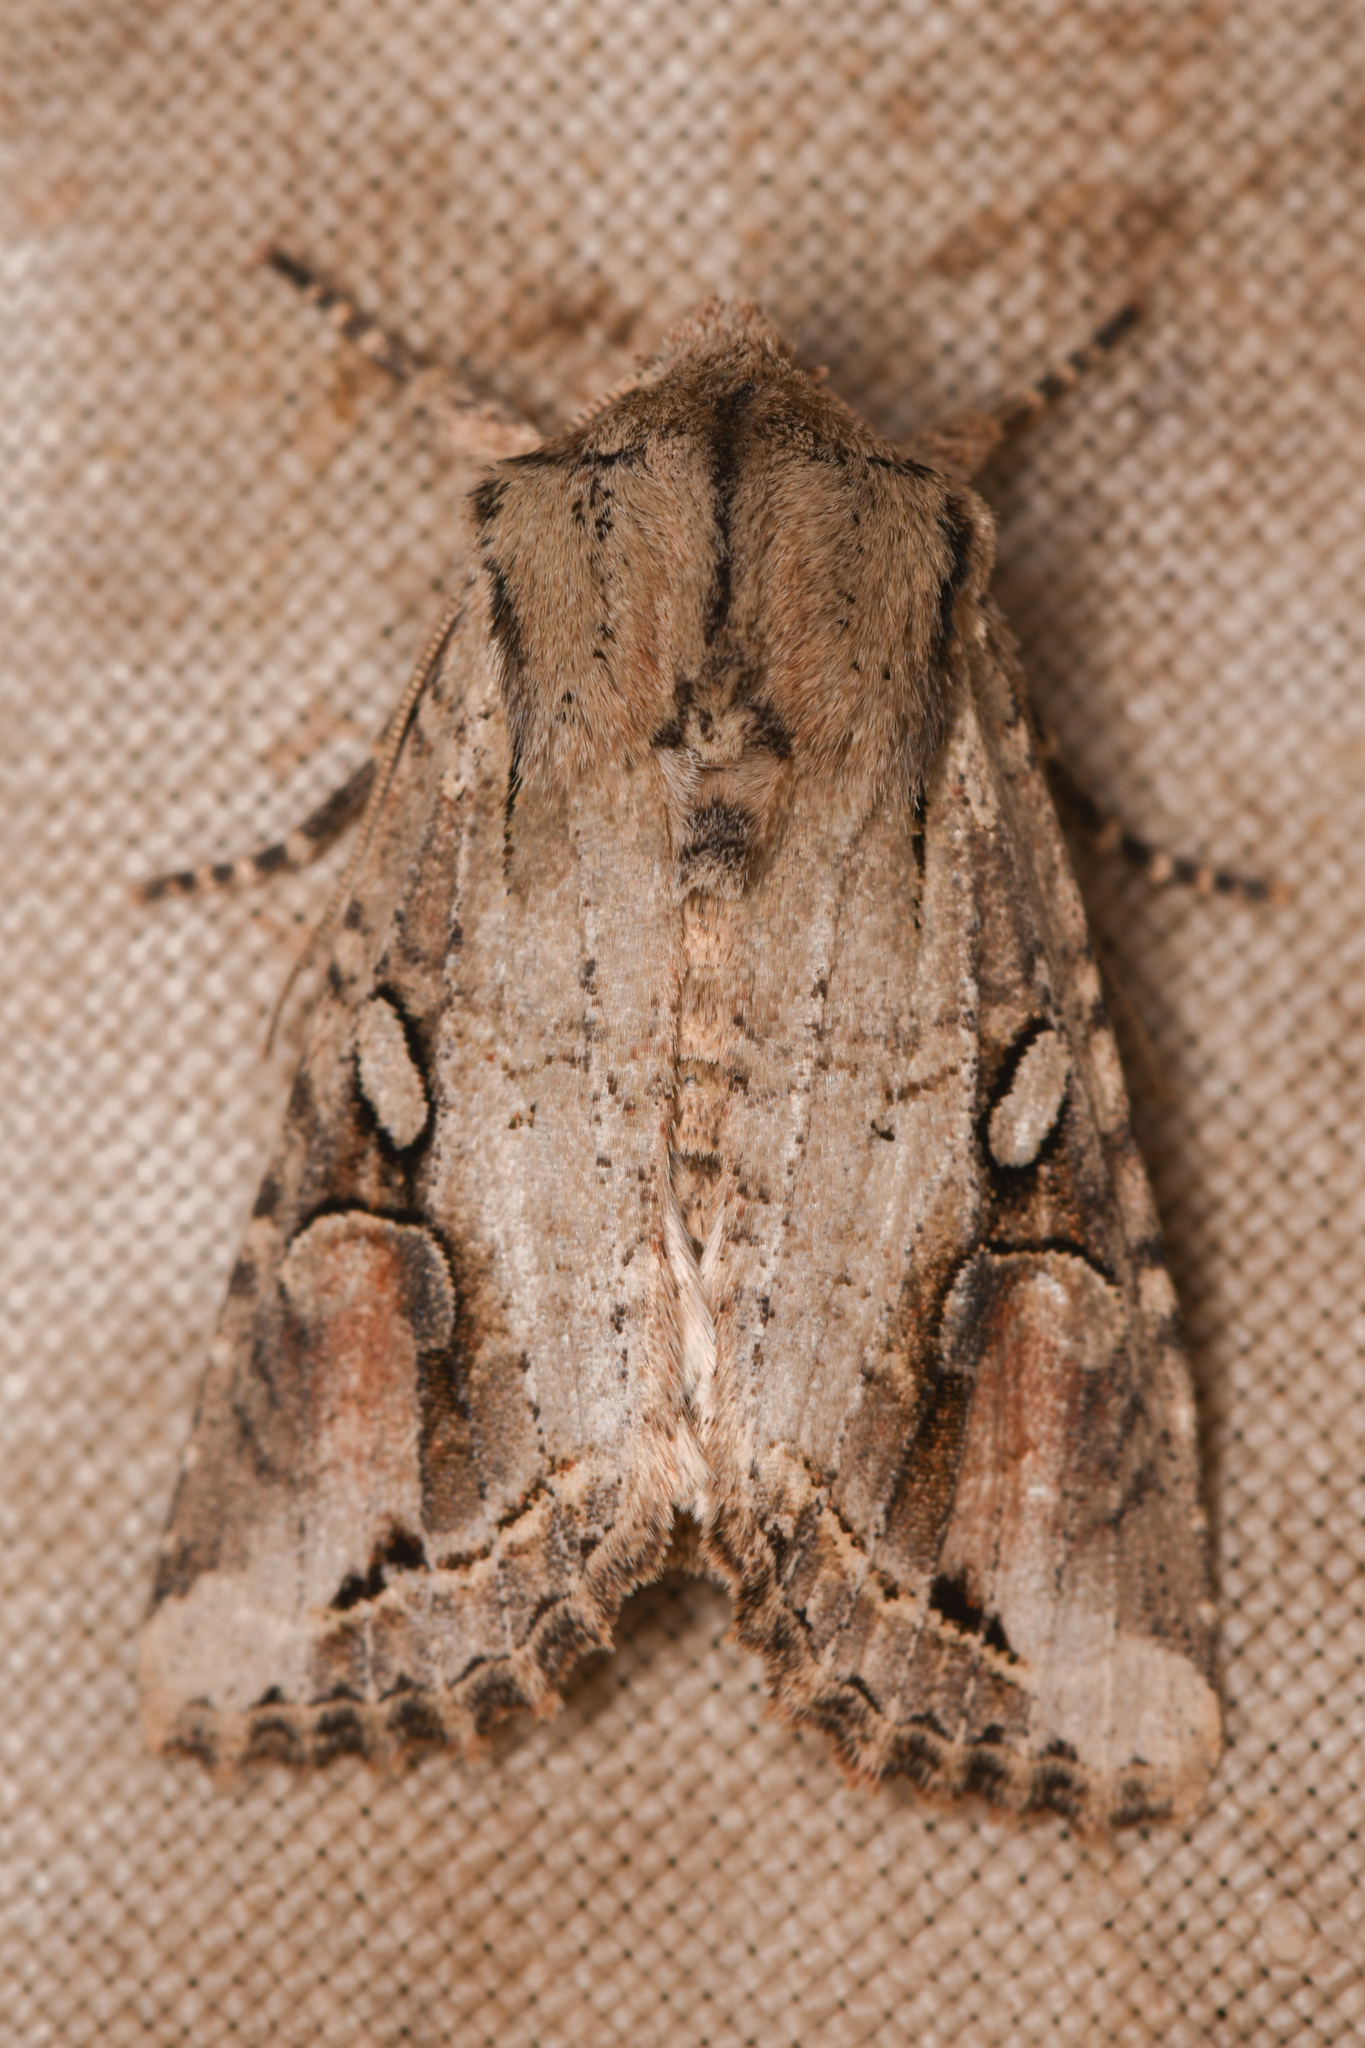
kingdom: Animalia
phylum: Arthropoda
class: Insecta
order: Lepidoptera
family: Noctuidae
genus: Egira
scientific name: Egira rubrica
